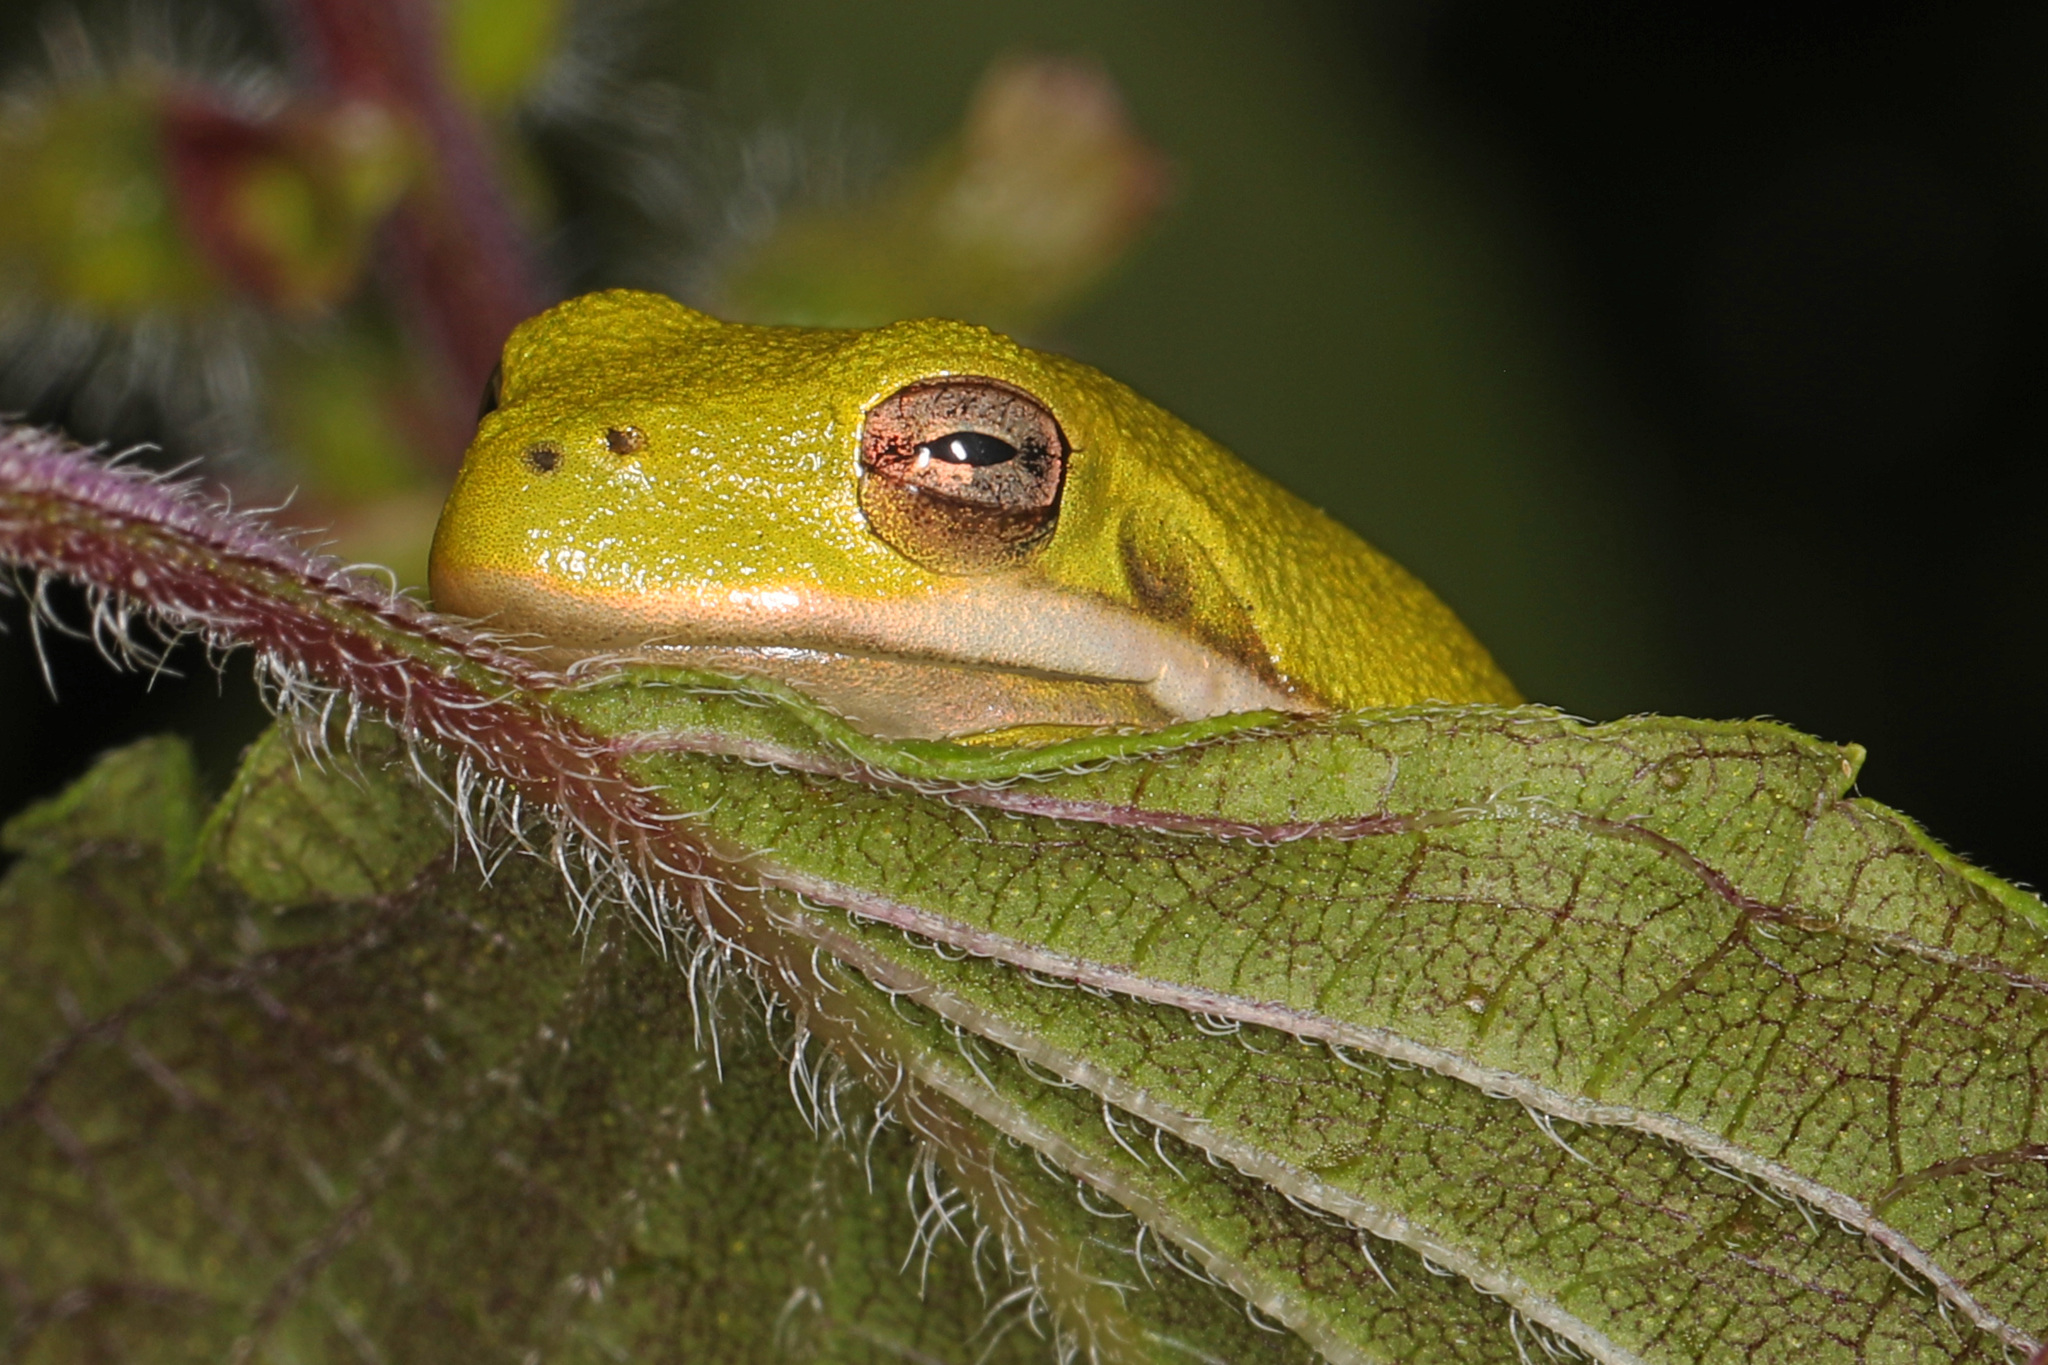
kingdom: Animalia
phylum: Chordata
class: Amphibia
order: Anura
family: Hylidae
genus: Dryophytes
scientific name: Dryophytes cinereus
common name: Green treefrog
